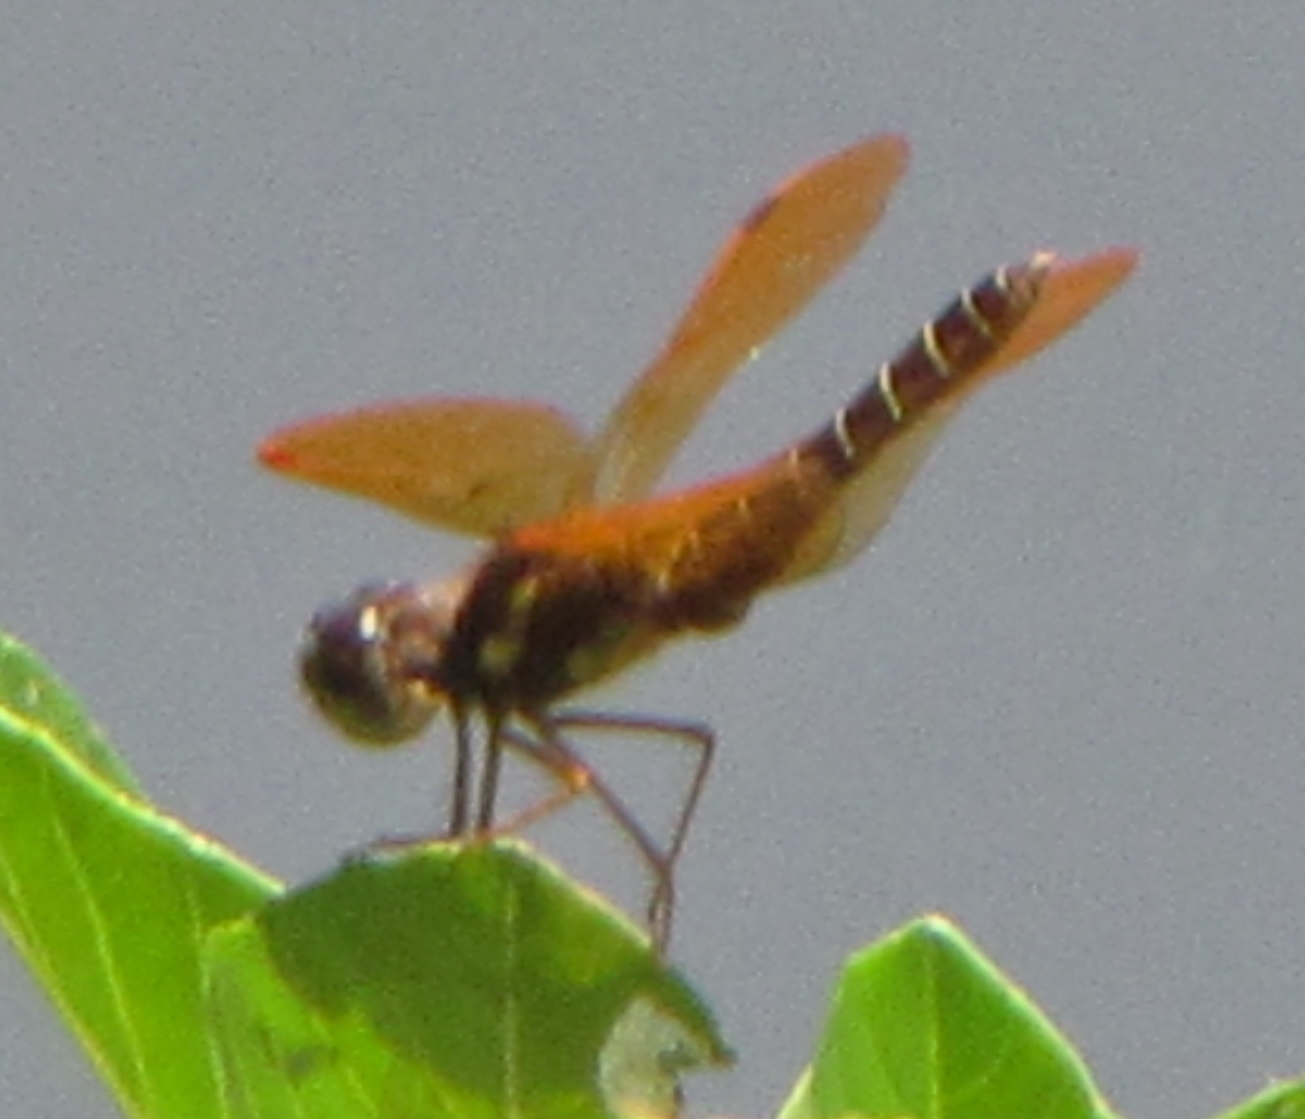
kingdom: Animalia
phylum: Arthropoda
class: Insecta
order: Odonata
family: Libellulidae
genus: Perithemis
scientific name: Perithemis tenera
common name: Eastern amberwing
